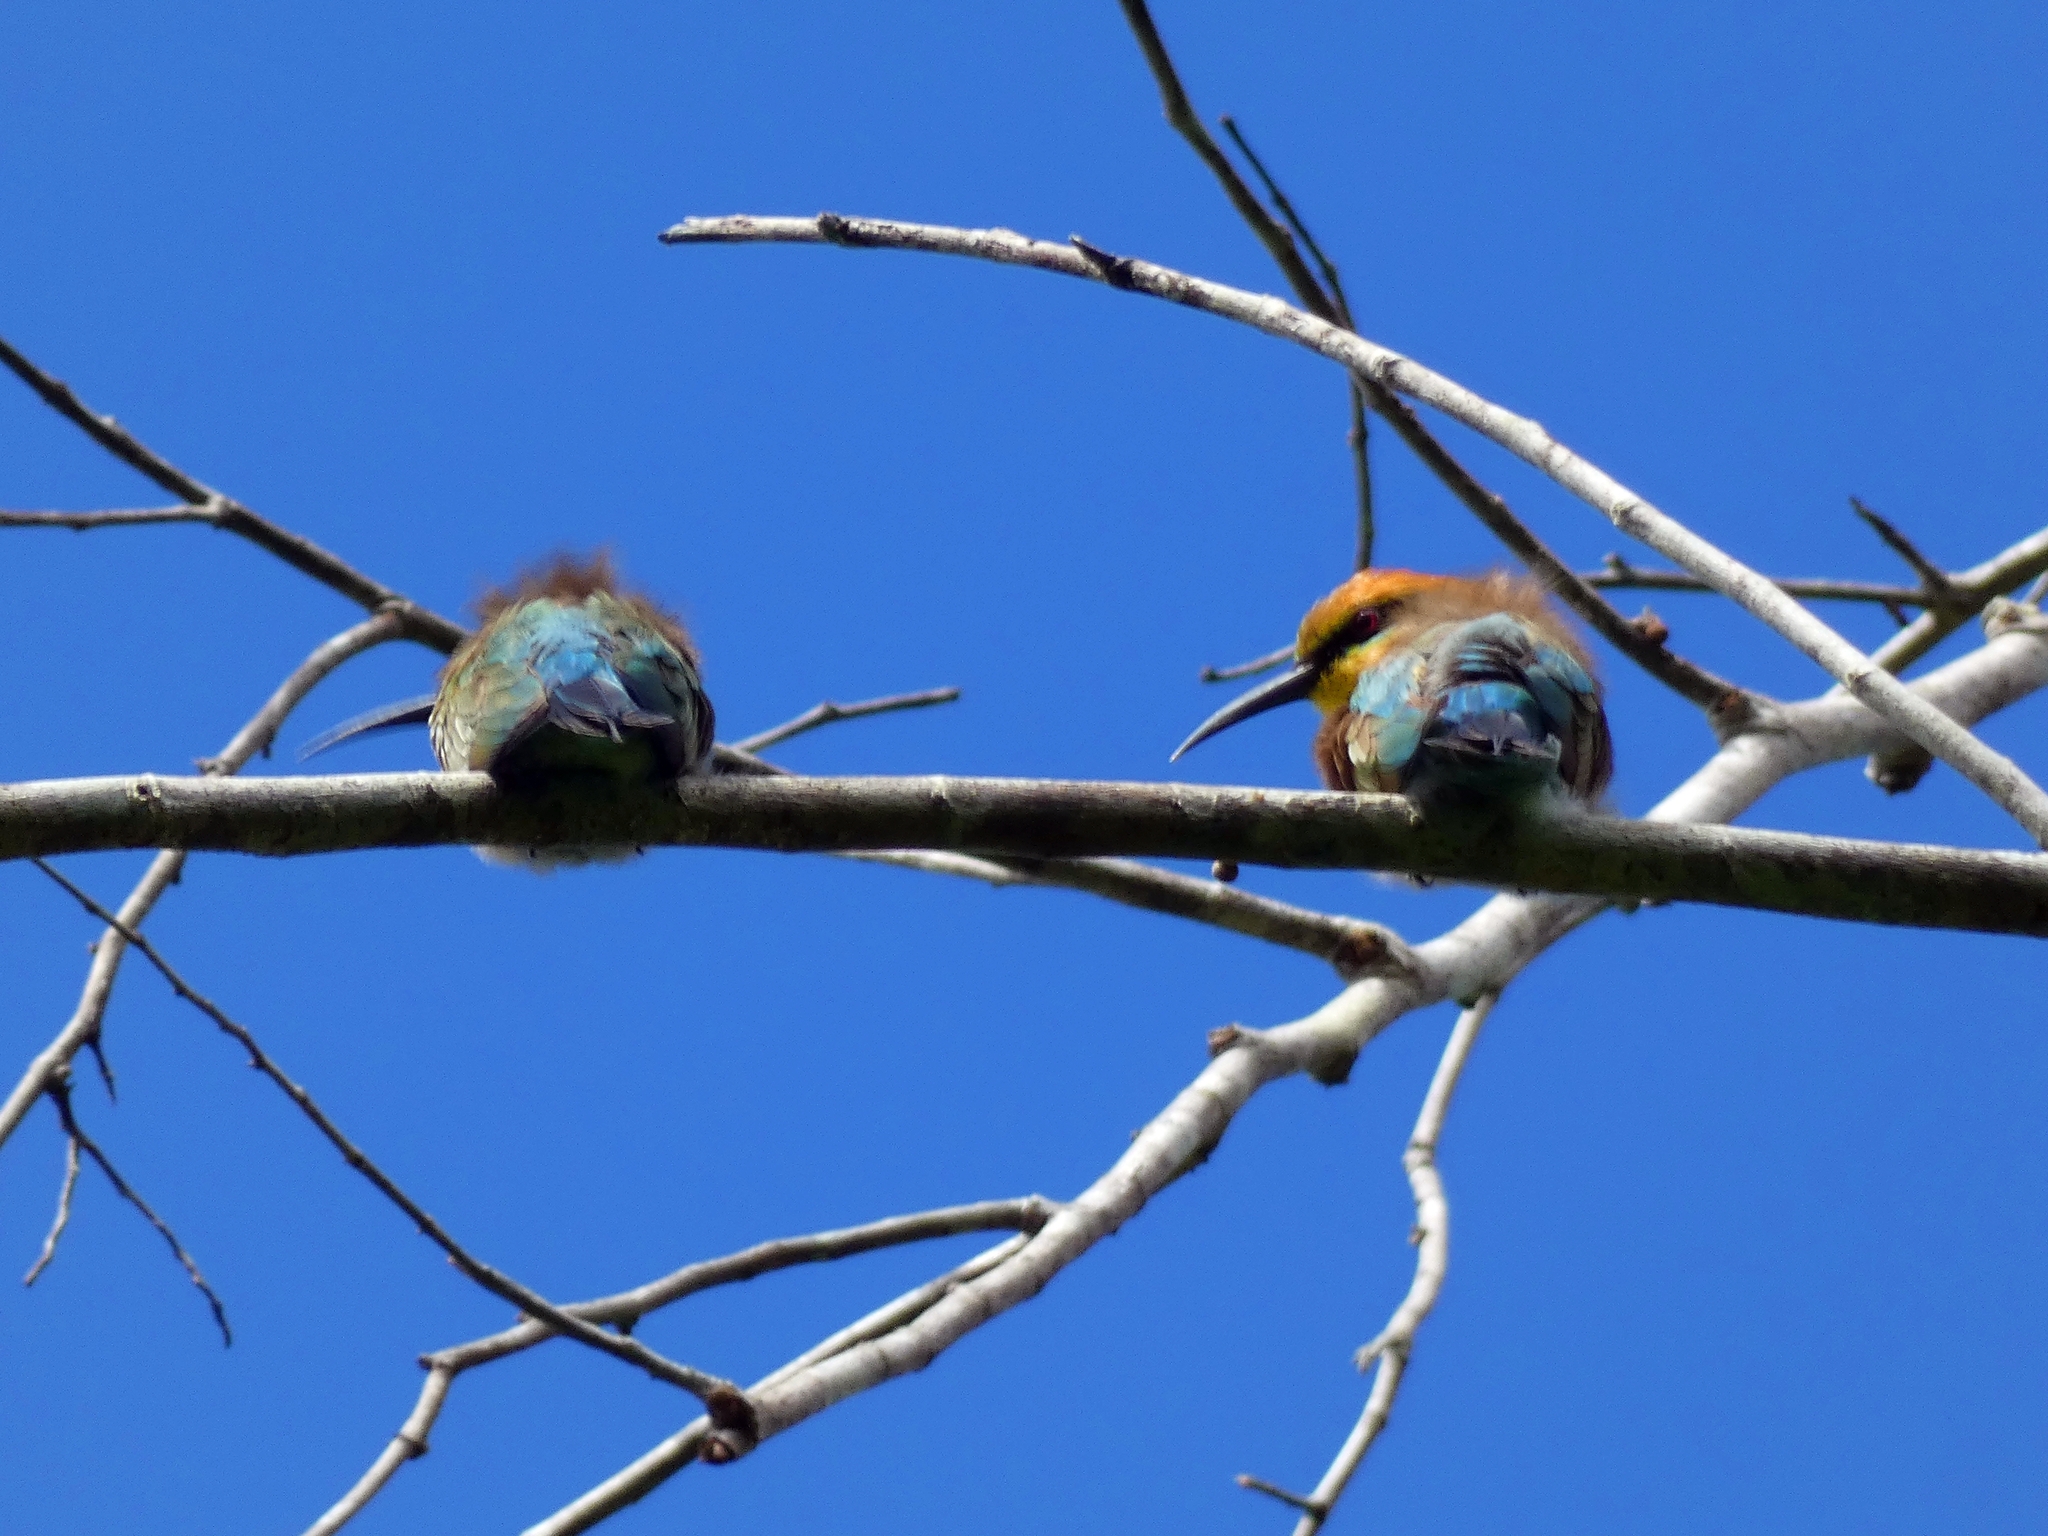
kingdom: Animalia
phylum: Chordata
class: Aves
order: Coraciiformes
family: Meropidae
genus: Merops
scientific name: Merops ornatus
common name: Rainbow bee-eater
